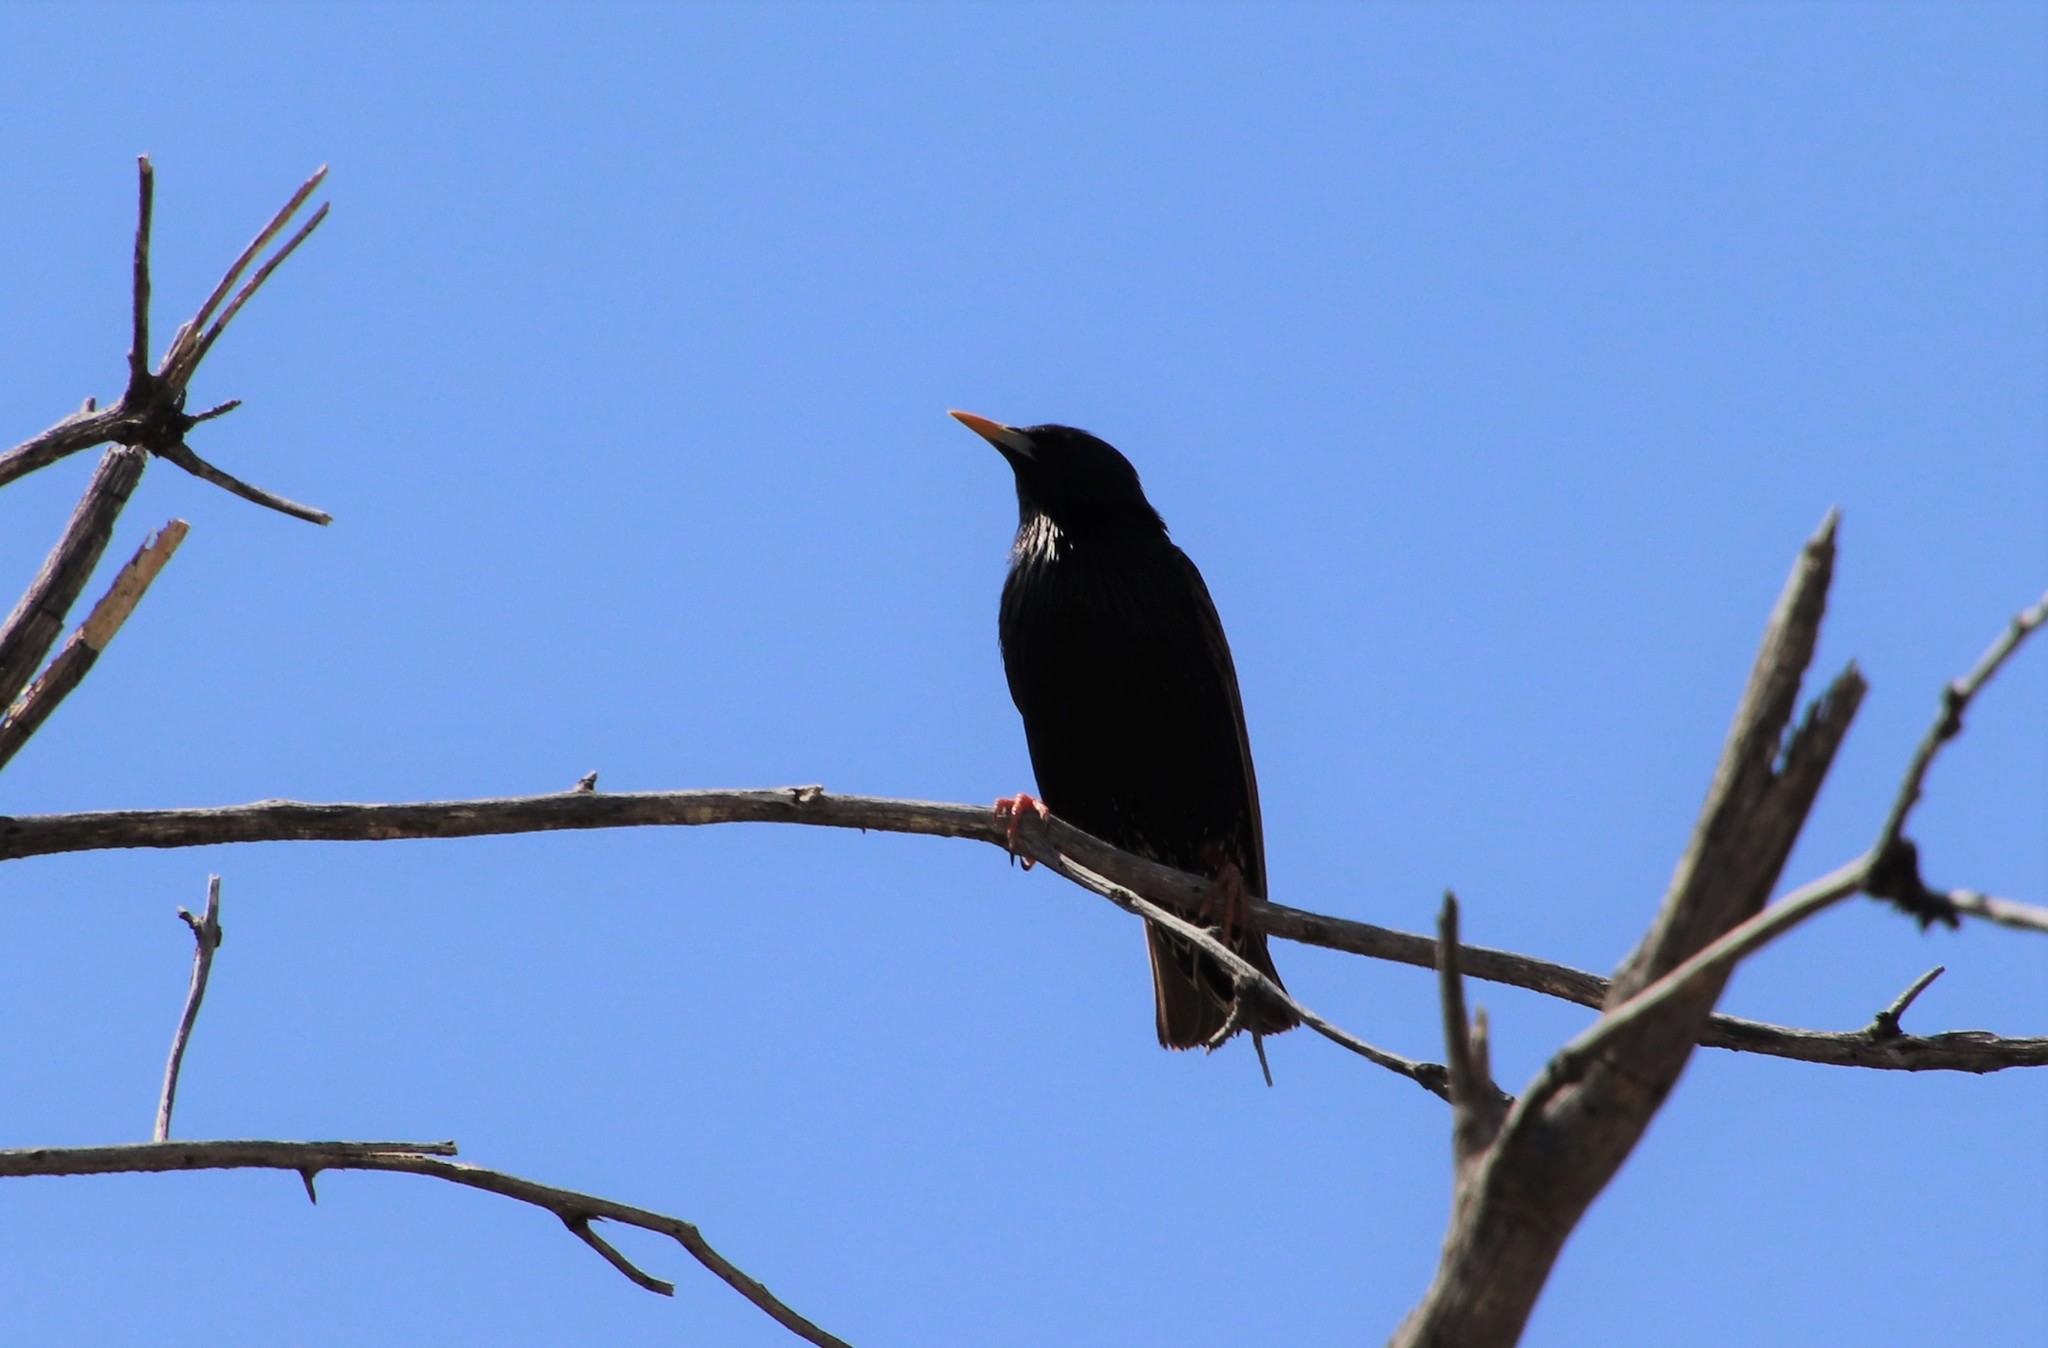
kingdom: Animalia
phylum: Chordata
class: Aves
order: Passeriformes
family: Sturnidae
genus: Sturnus
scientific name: Sturnus vulgaris
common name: Common starling
